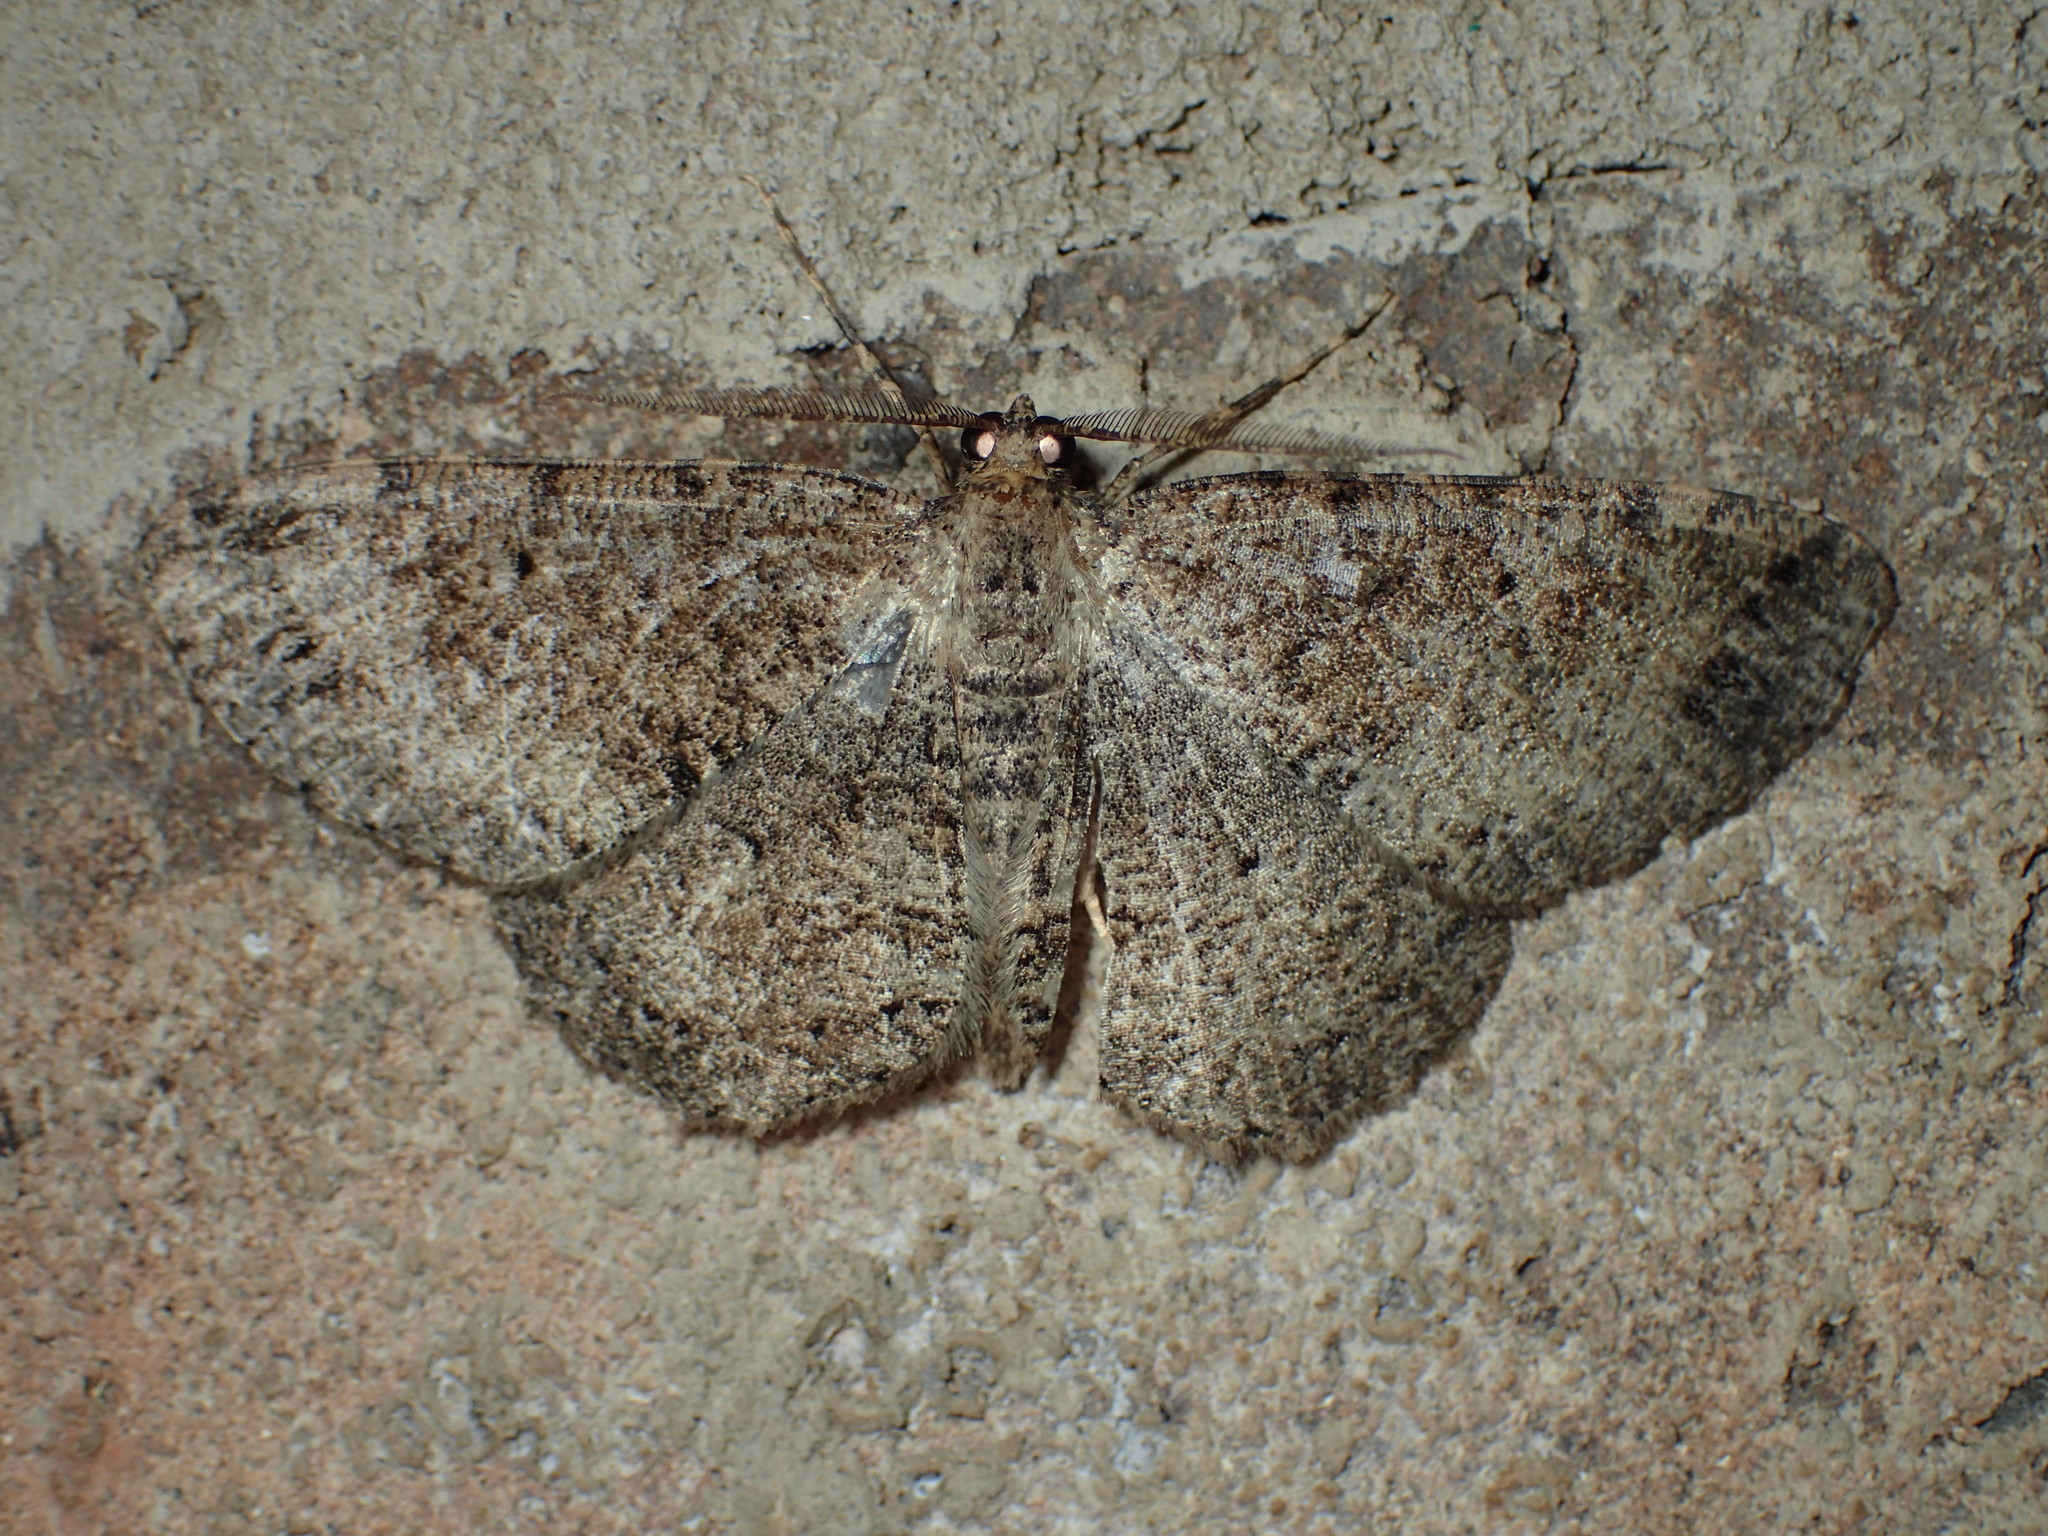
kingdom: Animalia
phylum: Arthropoda
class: Insecta
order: Lepidoptera
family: Geometridae
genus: Melanolophia
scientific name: Melanolophia canadaria
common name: Canadian melanolophia
